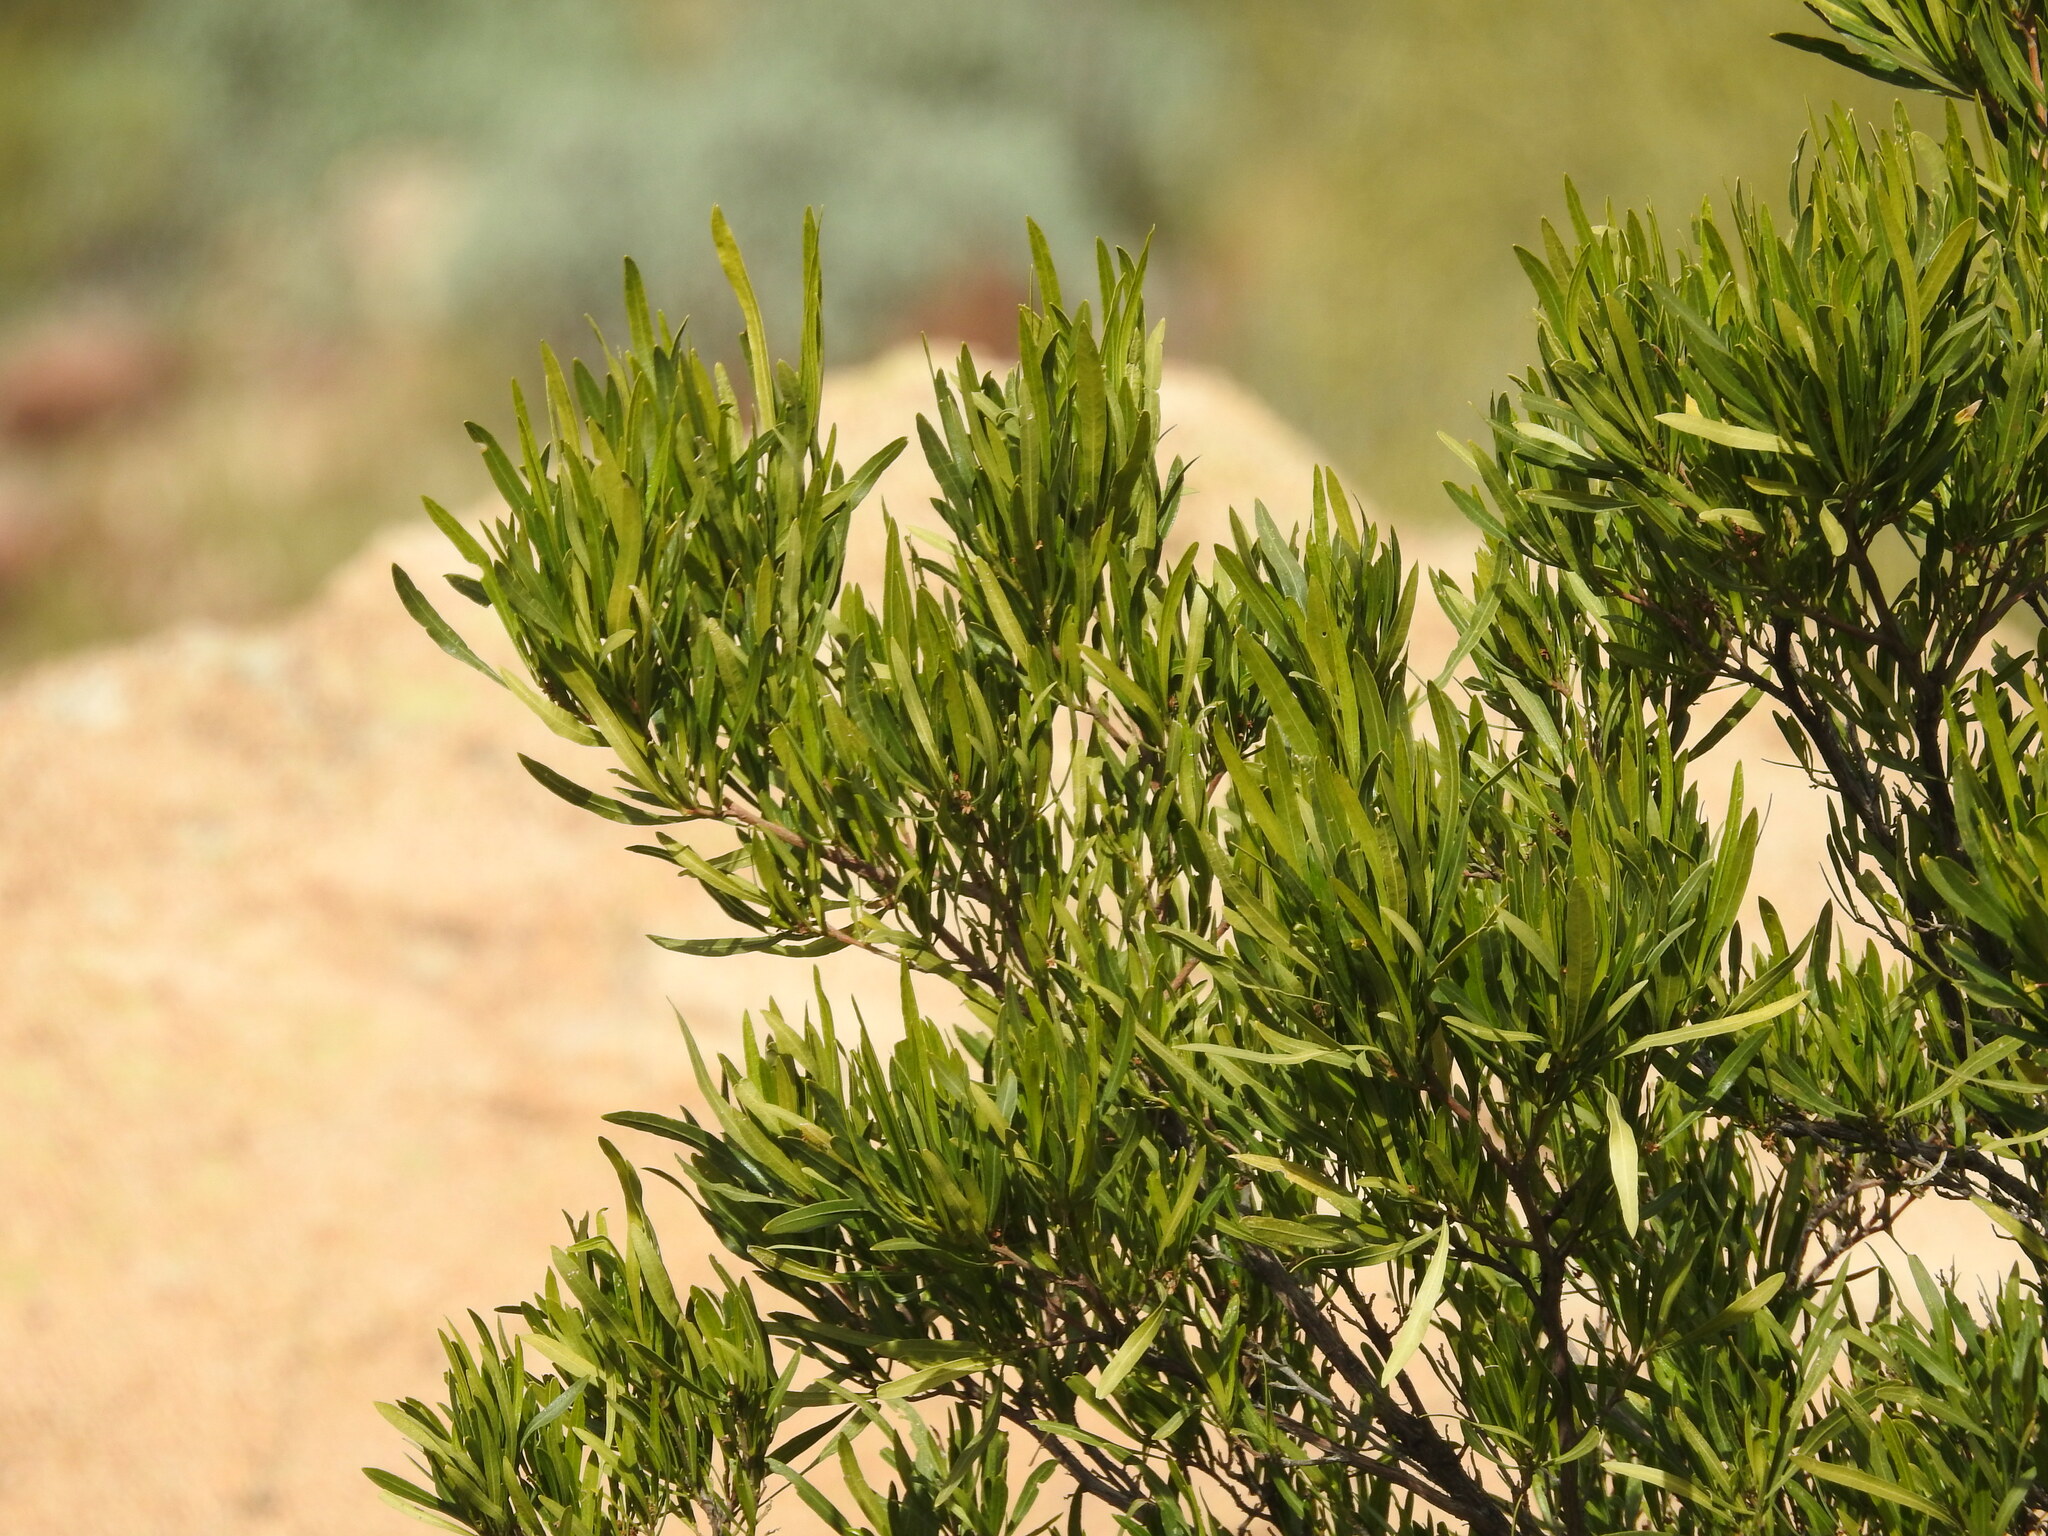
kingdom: Plantae
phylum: Tracheophyta
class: Magnoliopsida
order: Sapindales
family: Sapindaceae
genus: Dodonaea
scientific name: Dodonaea viscosa
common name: Hopbush
